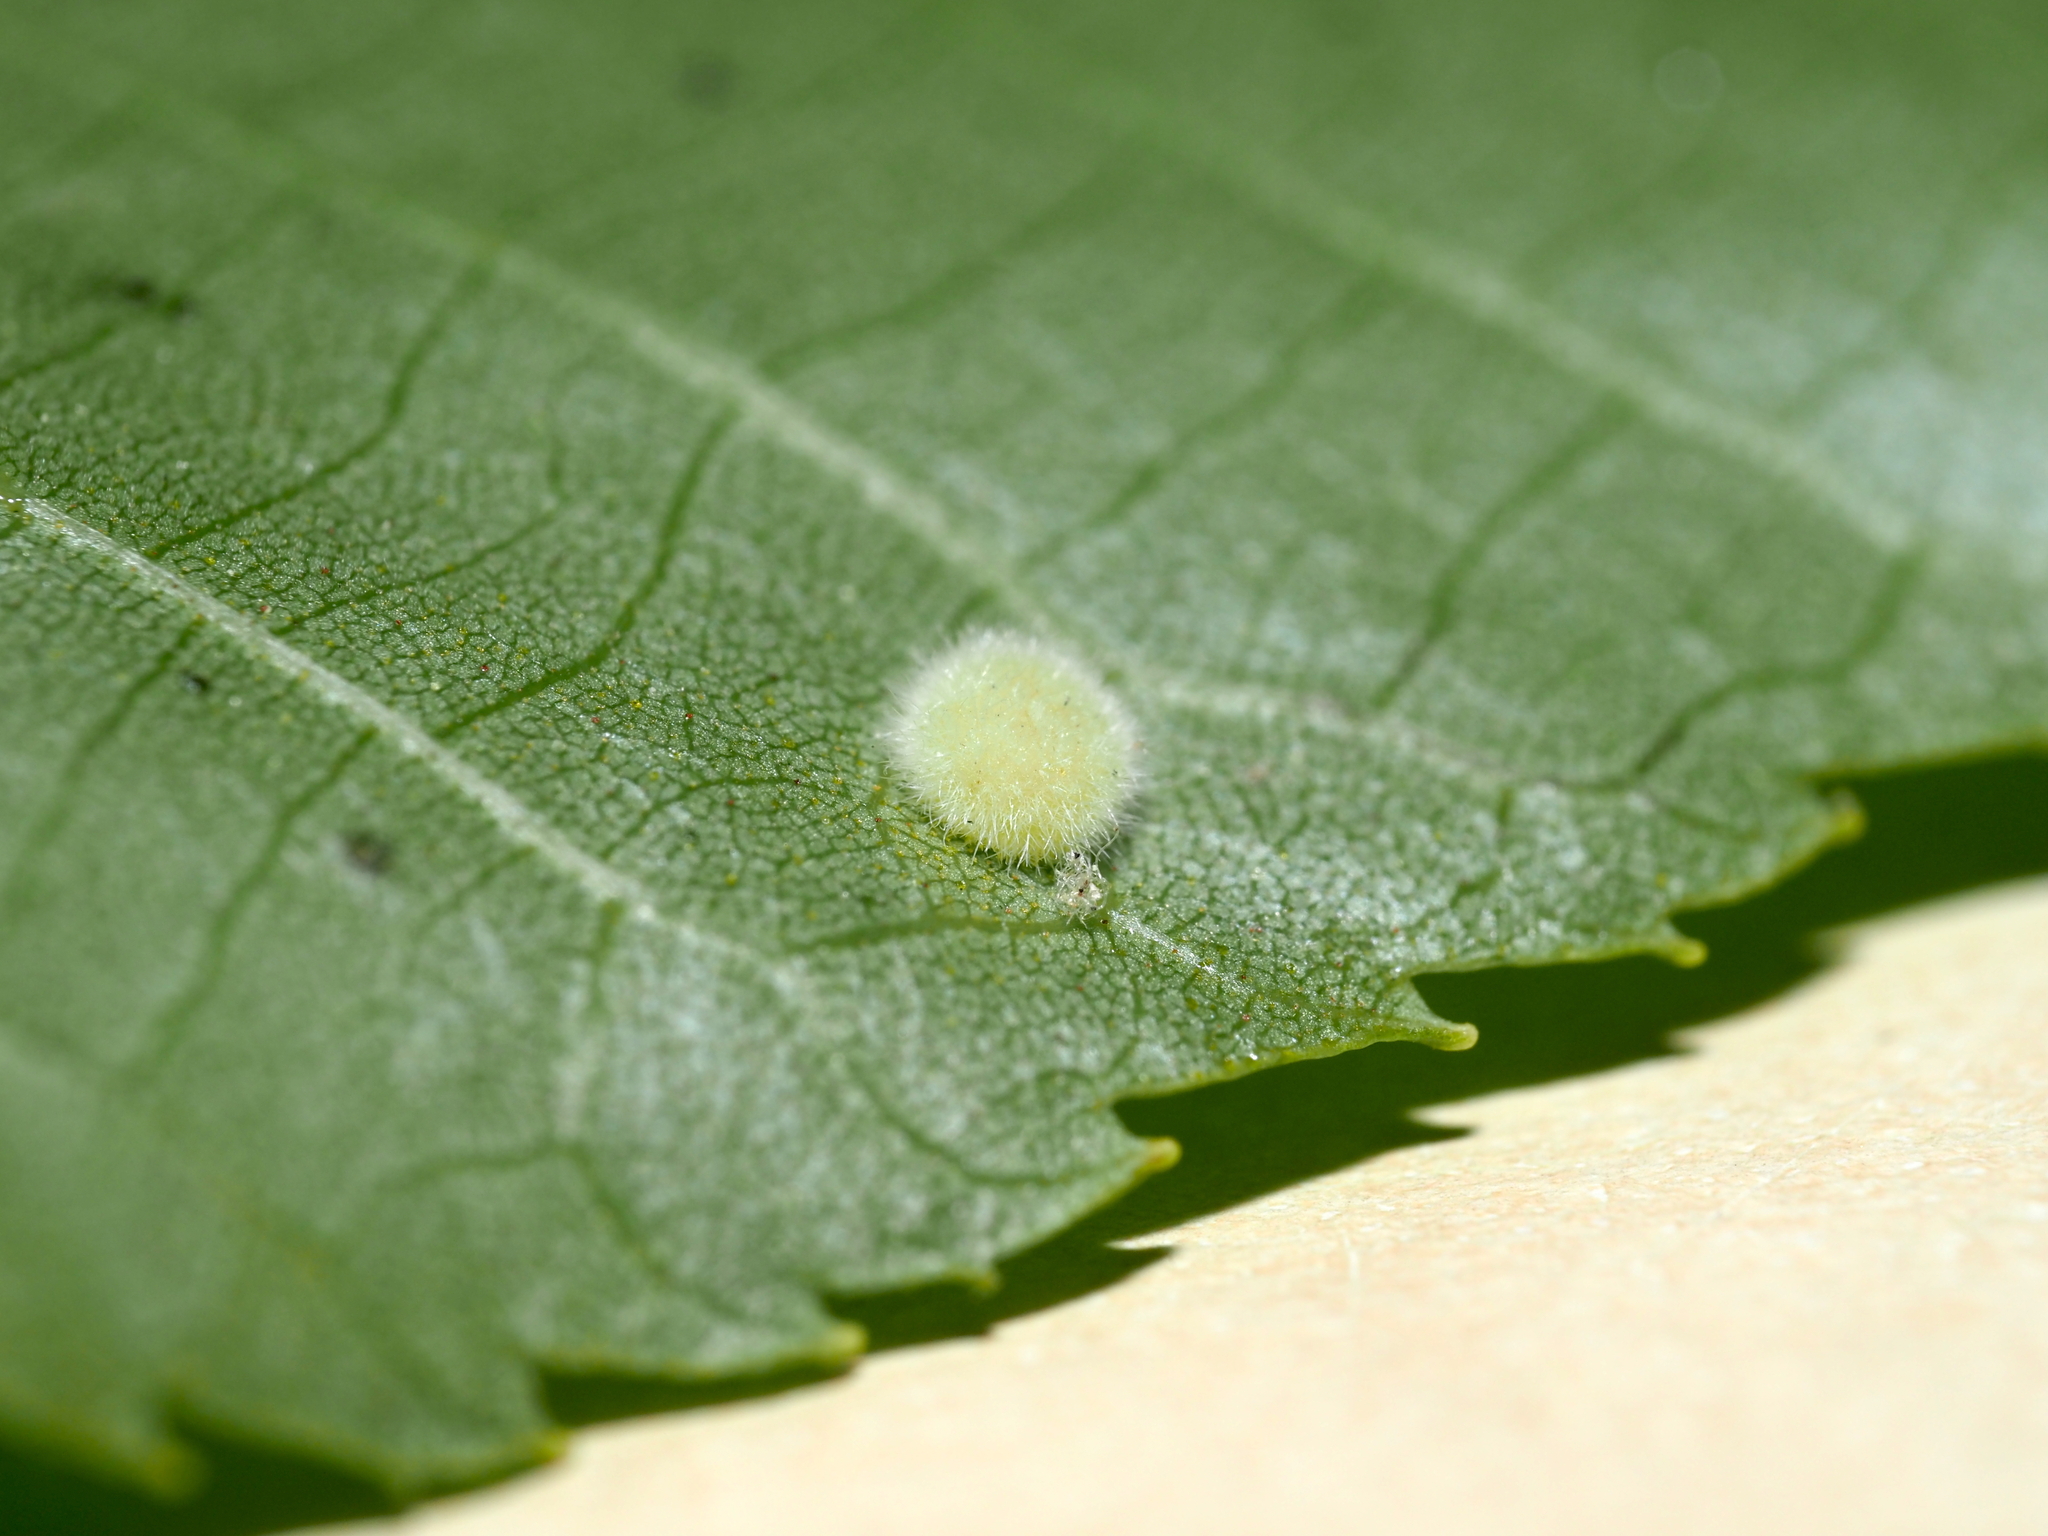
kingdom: Animalia
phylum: Arthropoda
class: Insecta
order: Diptera
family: Cecidomyiidae
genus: Caryomyia
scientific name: Caryomyia hirtiglobus
